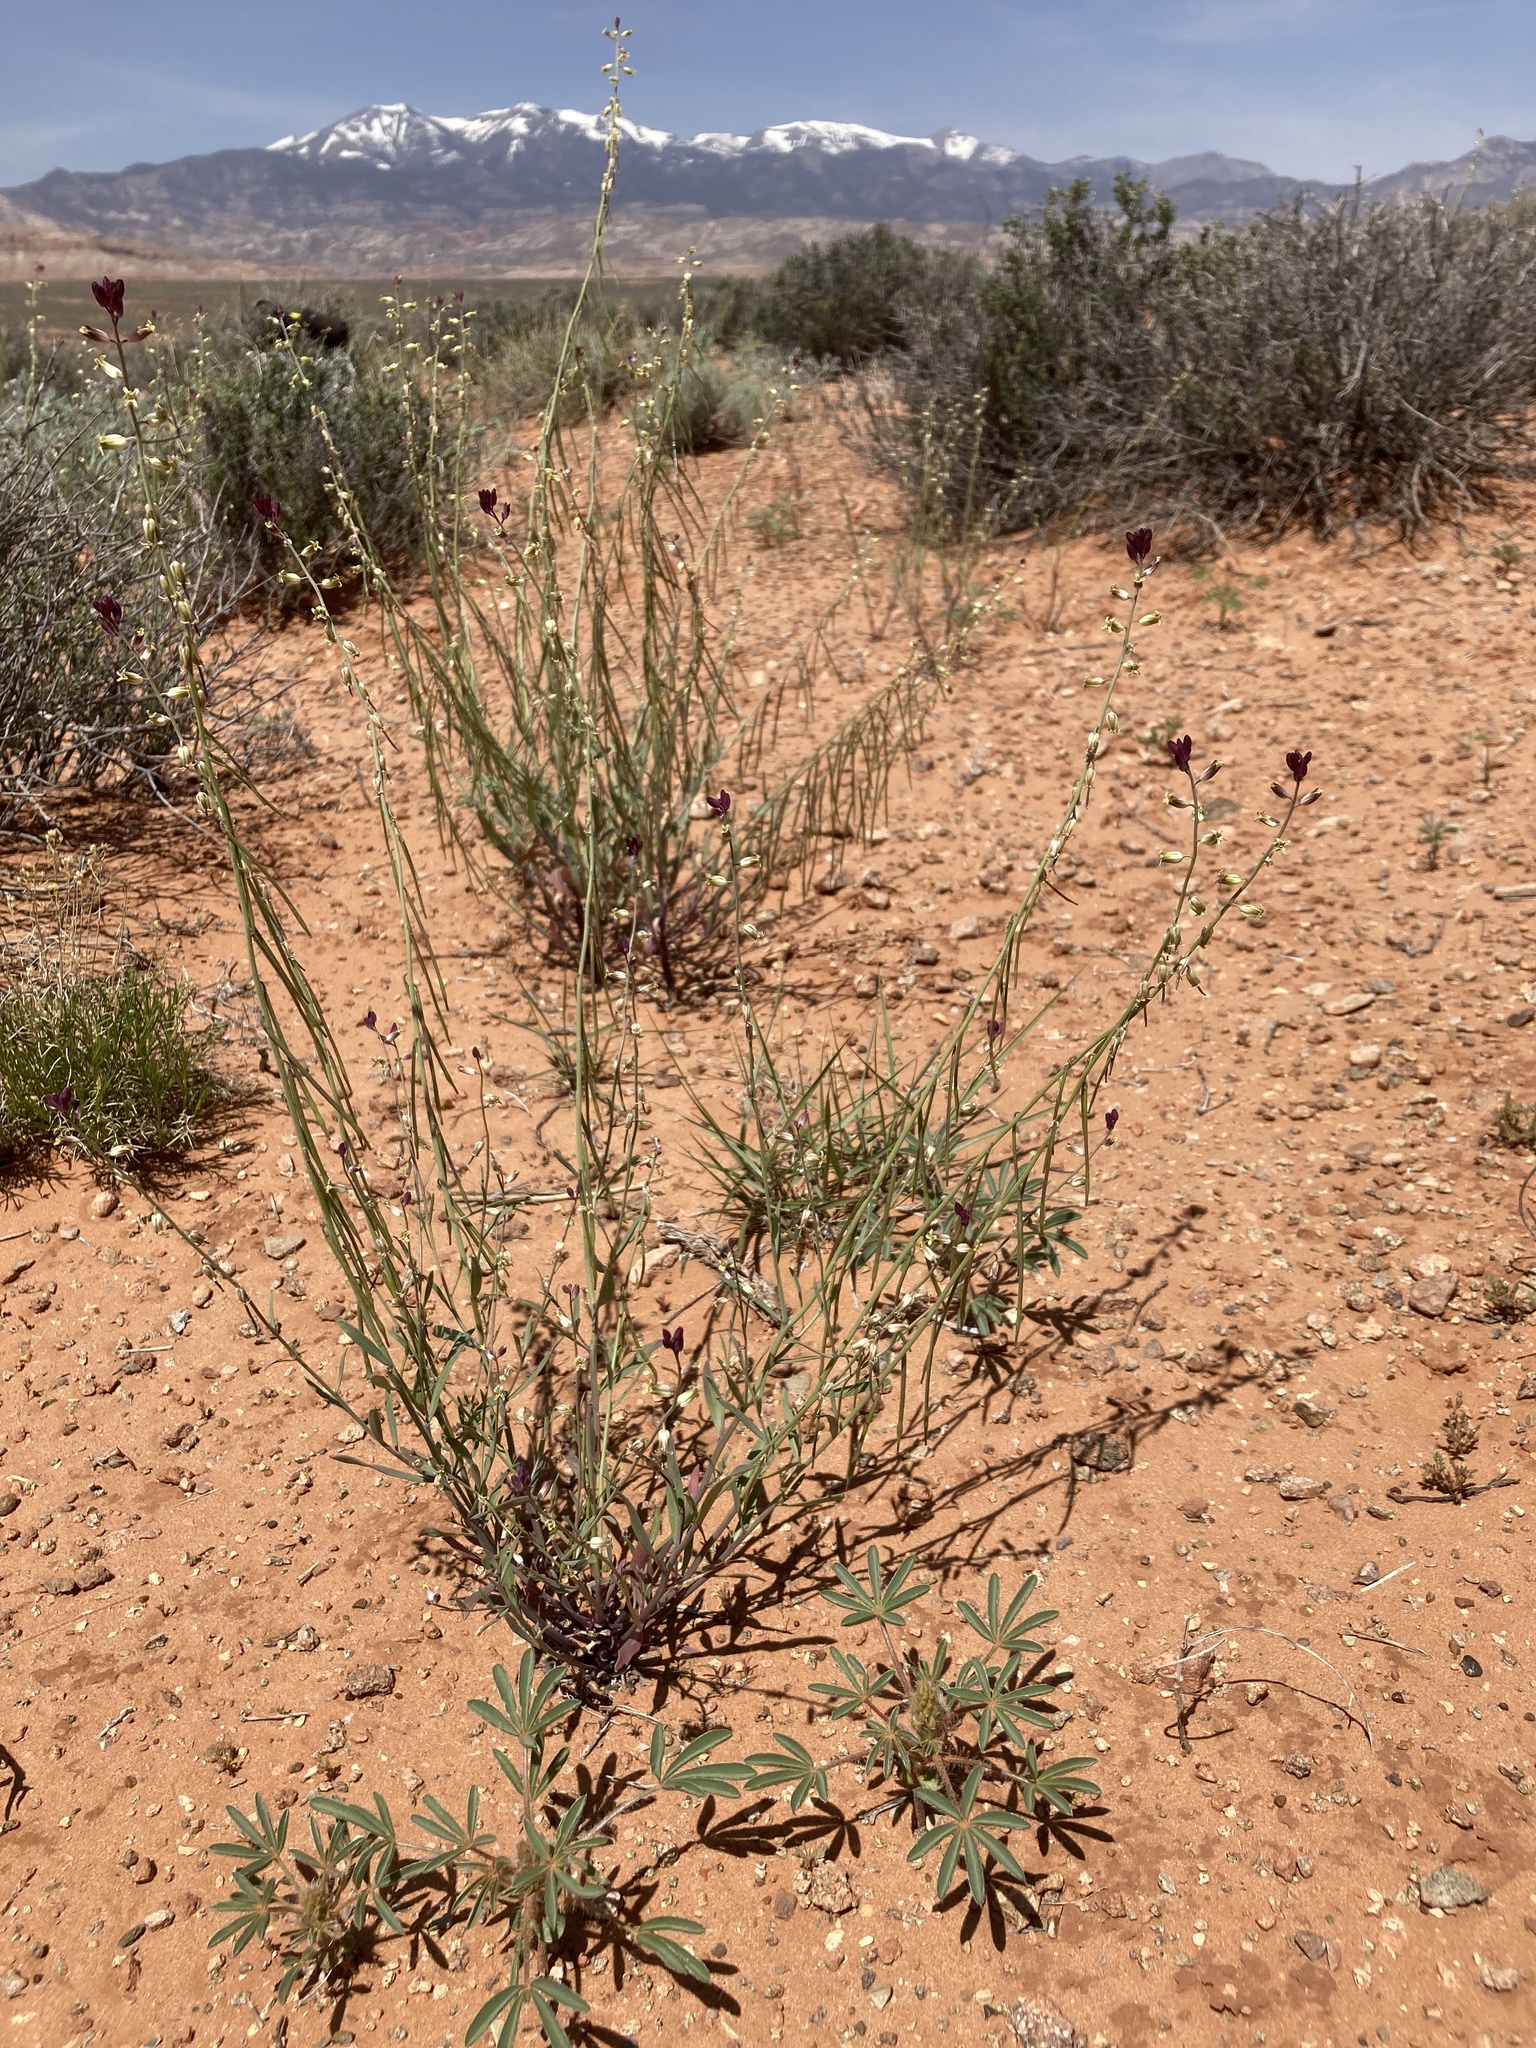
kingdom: Plantae
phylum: Tracheophyta
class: Magnoliopsida
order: Brassicales
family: Brassicaceae
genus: Streptanthus
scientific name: Streptanthus longirostris
